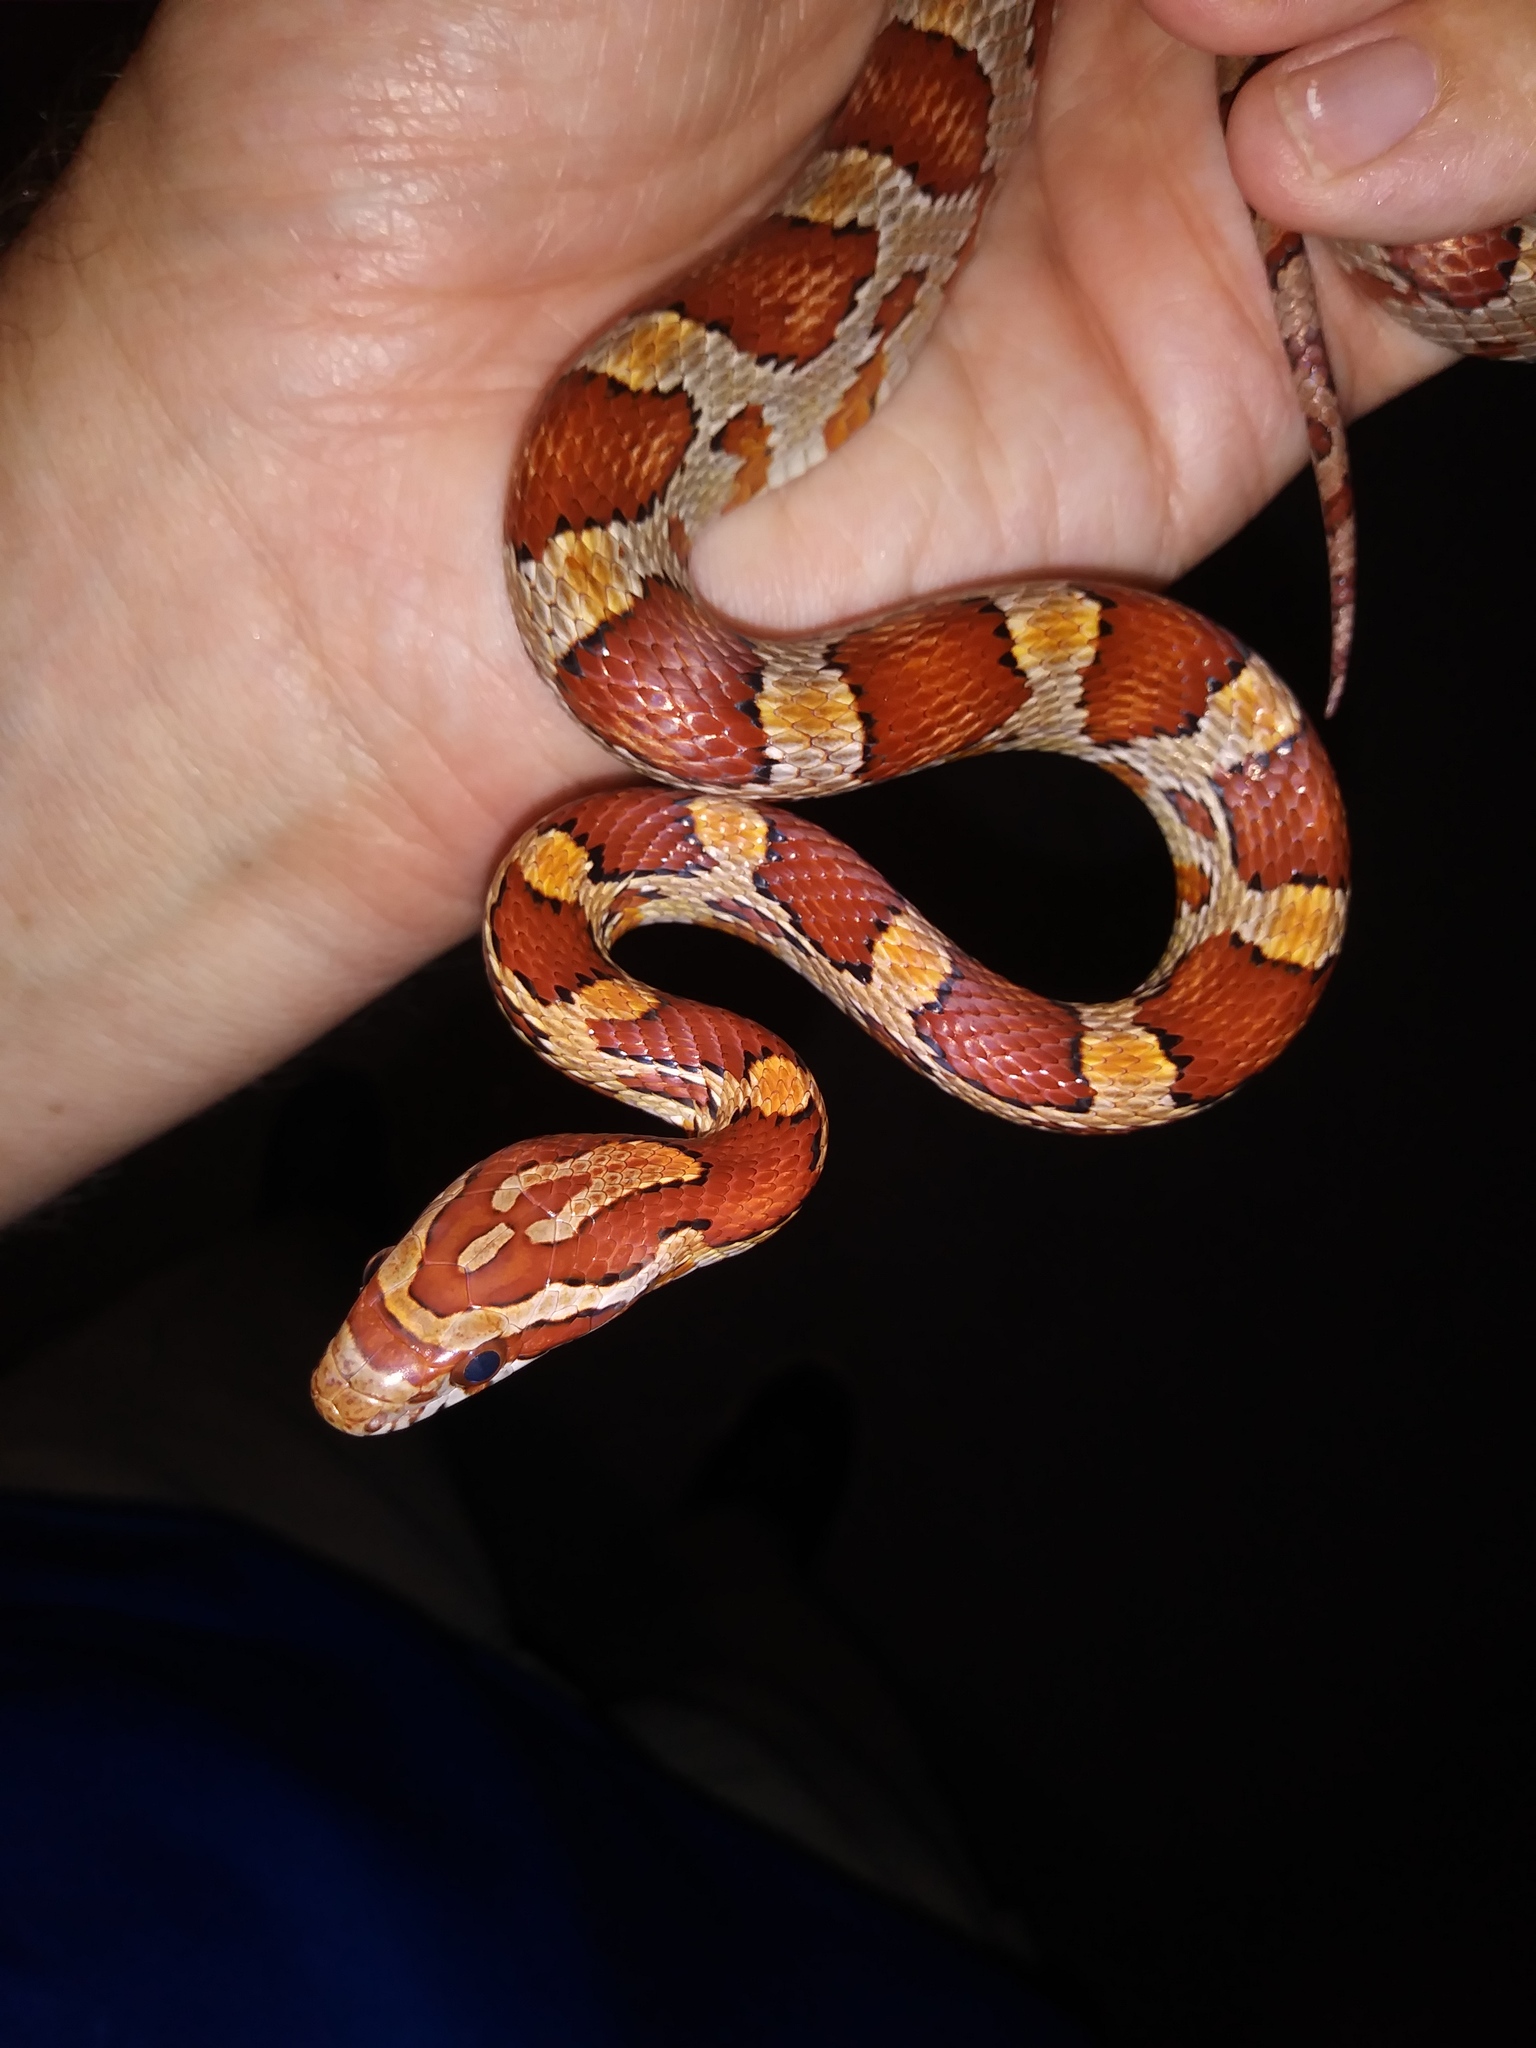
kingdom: Animalia
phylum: Chordata
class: Squamata
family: Colubridae
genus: Pantherophis
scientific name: Pantherophis guttatus
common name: Red cornsnake
